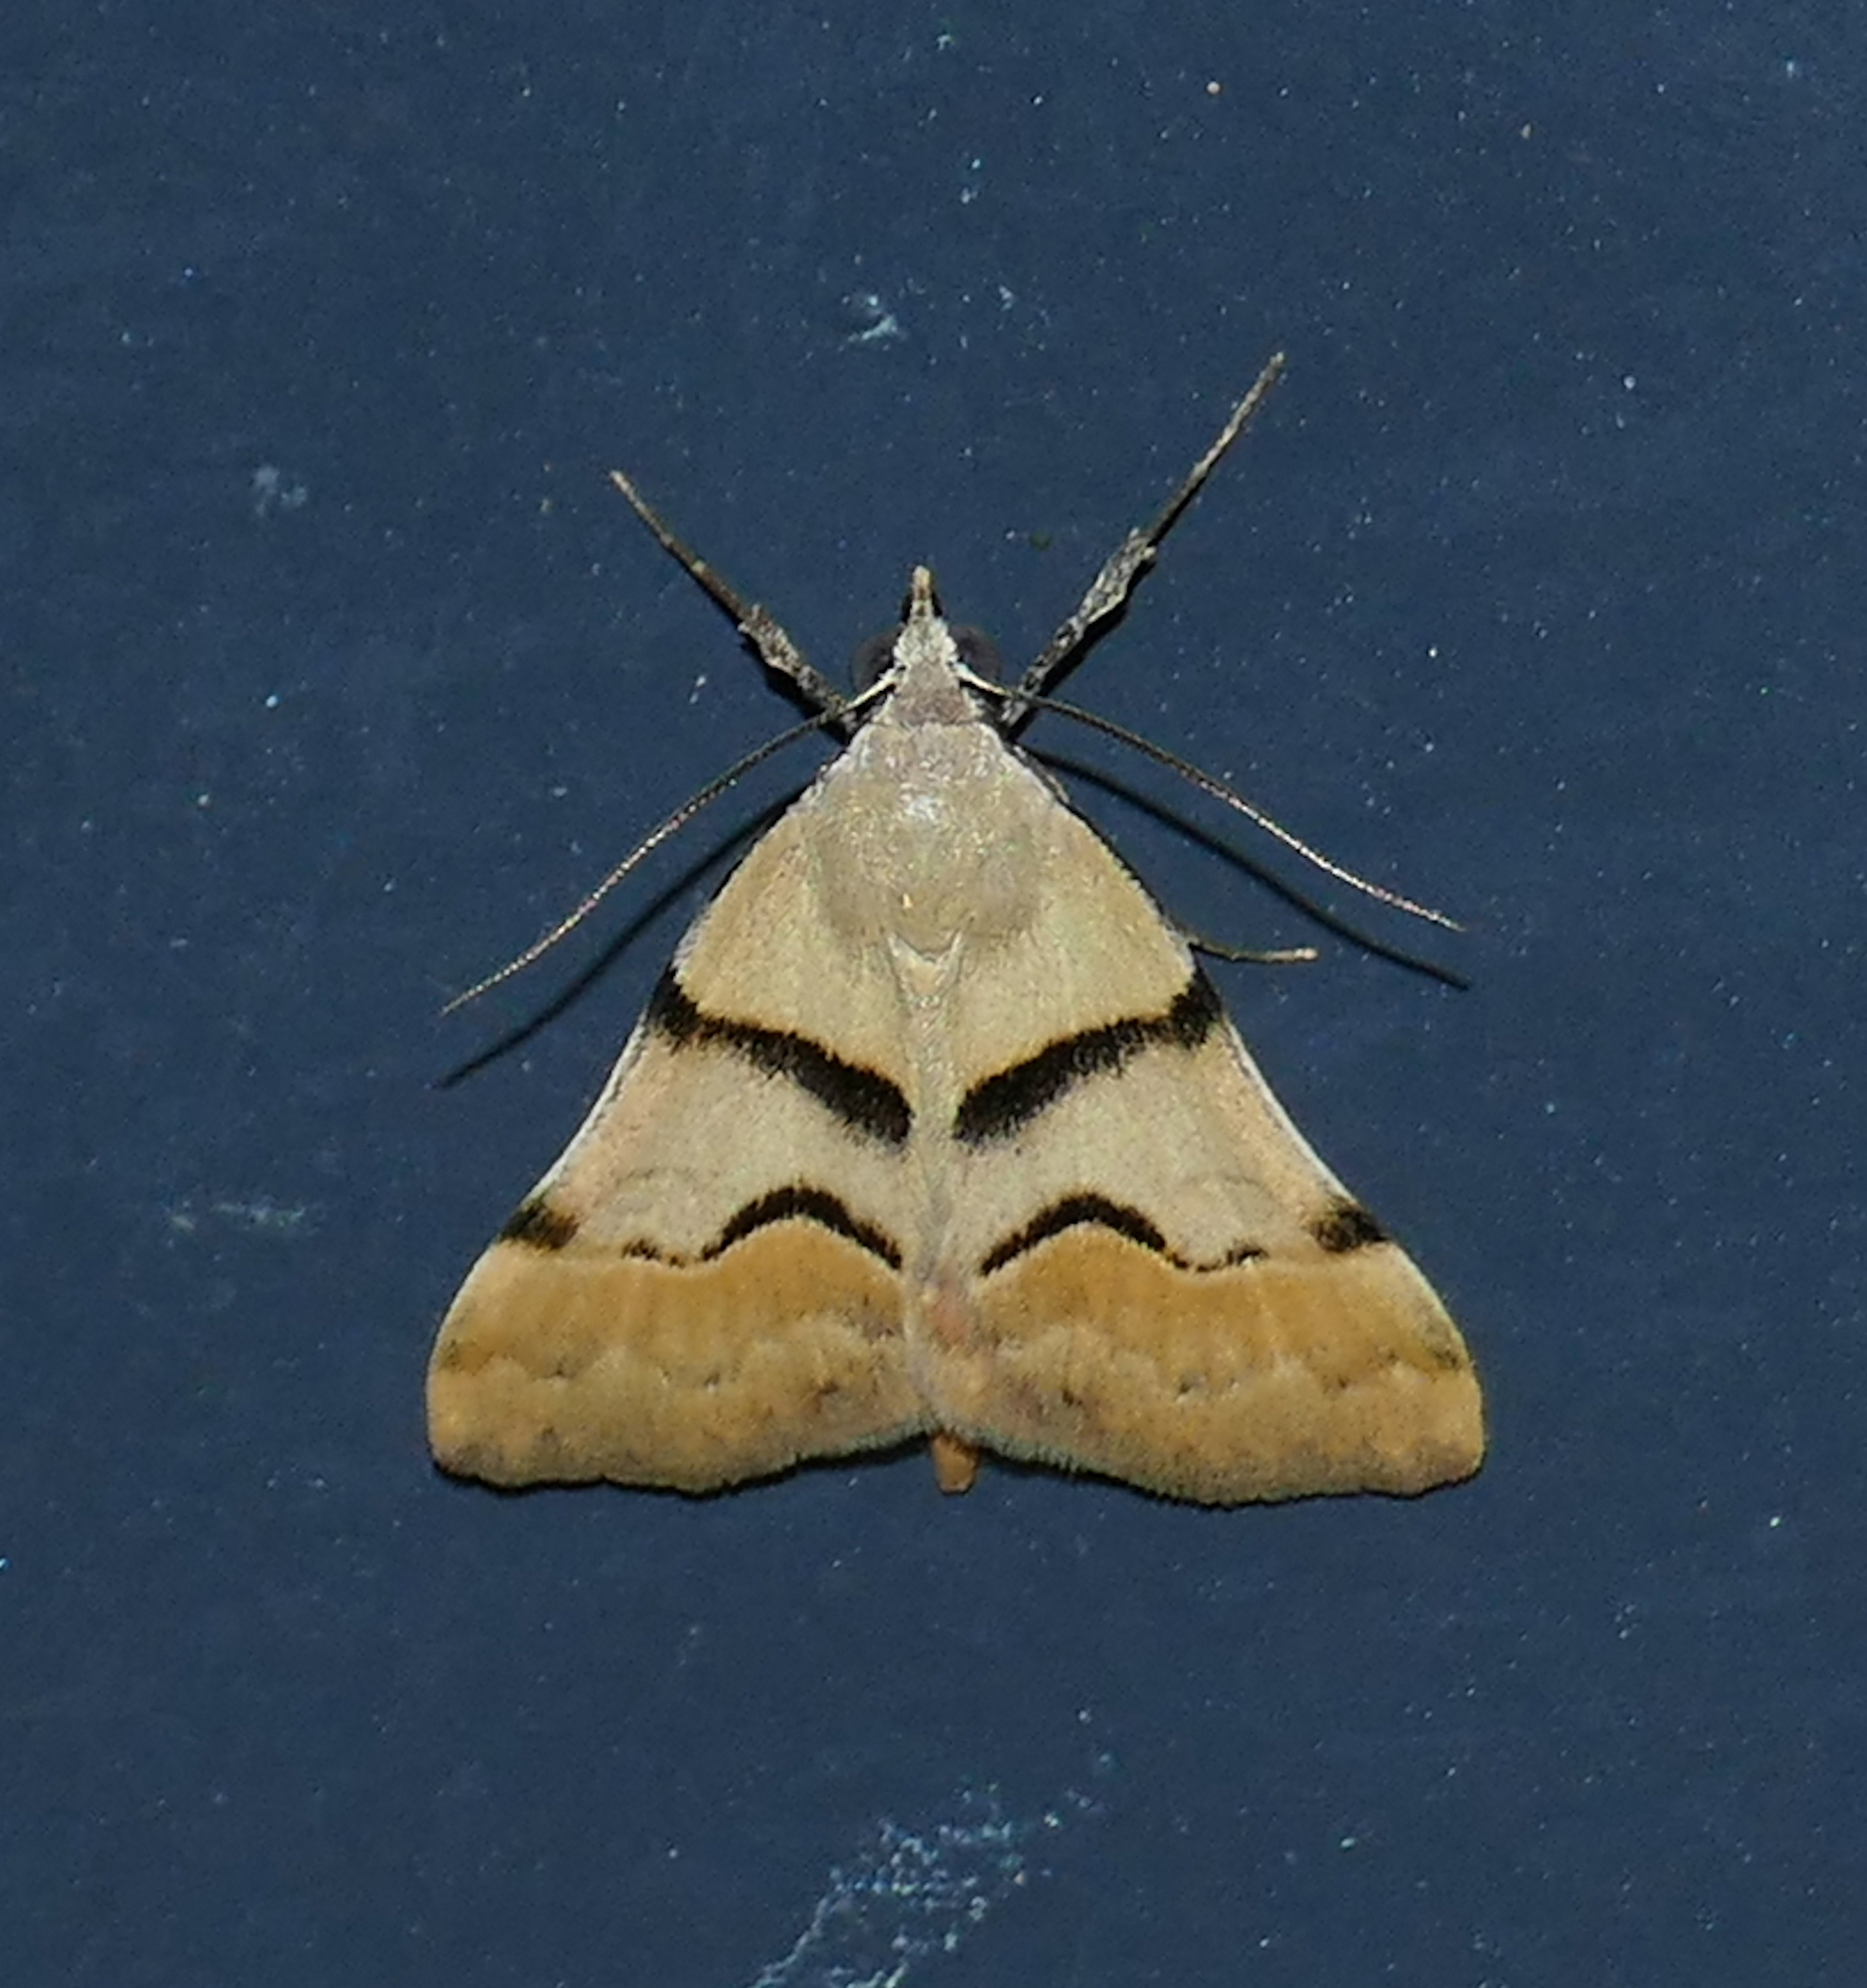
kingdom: Animalia
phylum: Arthropoda
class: Insecta
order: Lepidoptera
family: Erebidae
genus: Hemeroplanis
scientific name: Hemeroplanis incusalis
